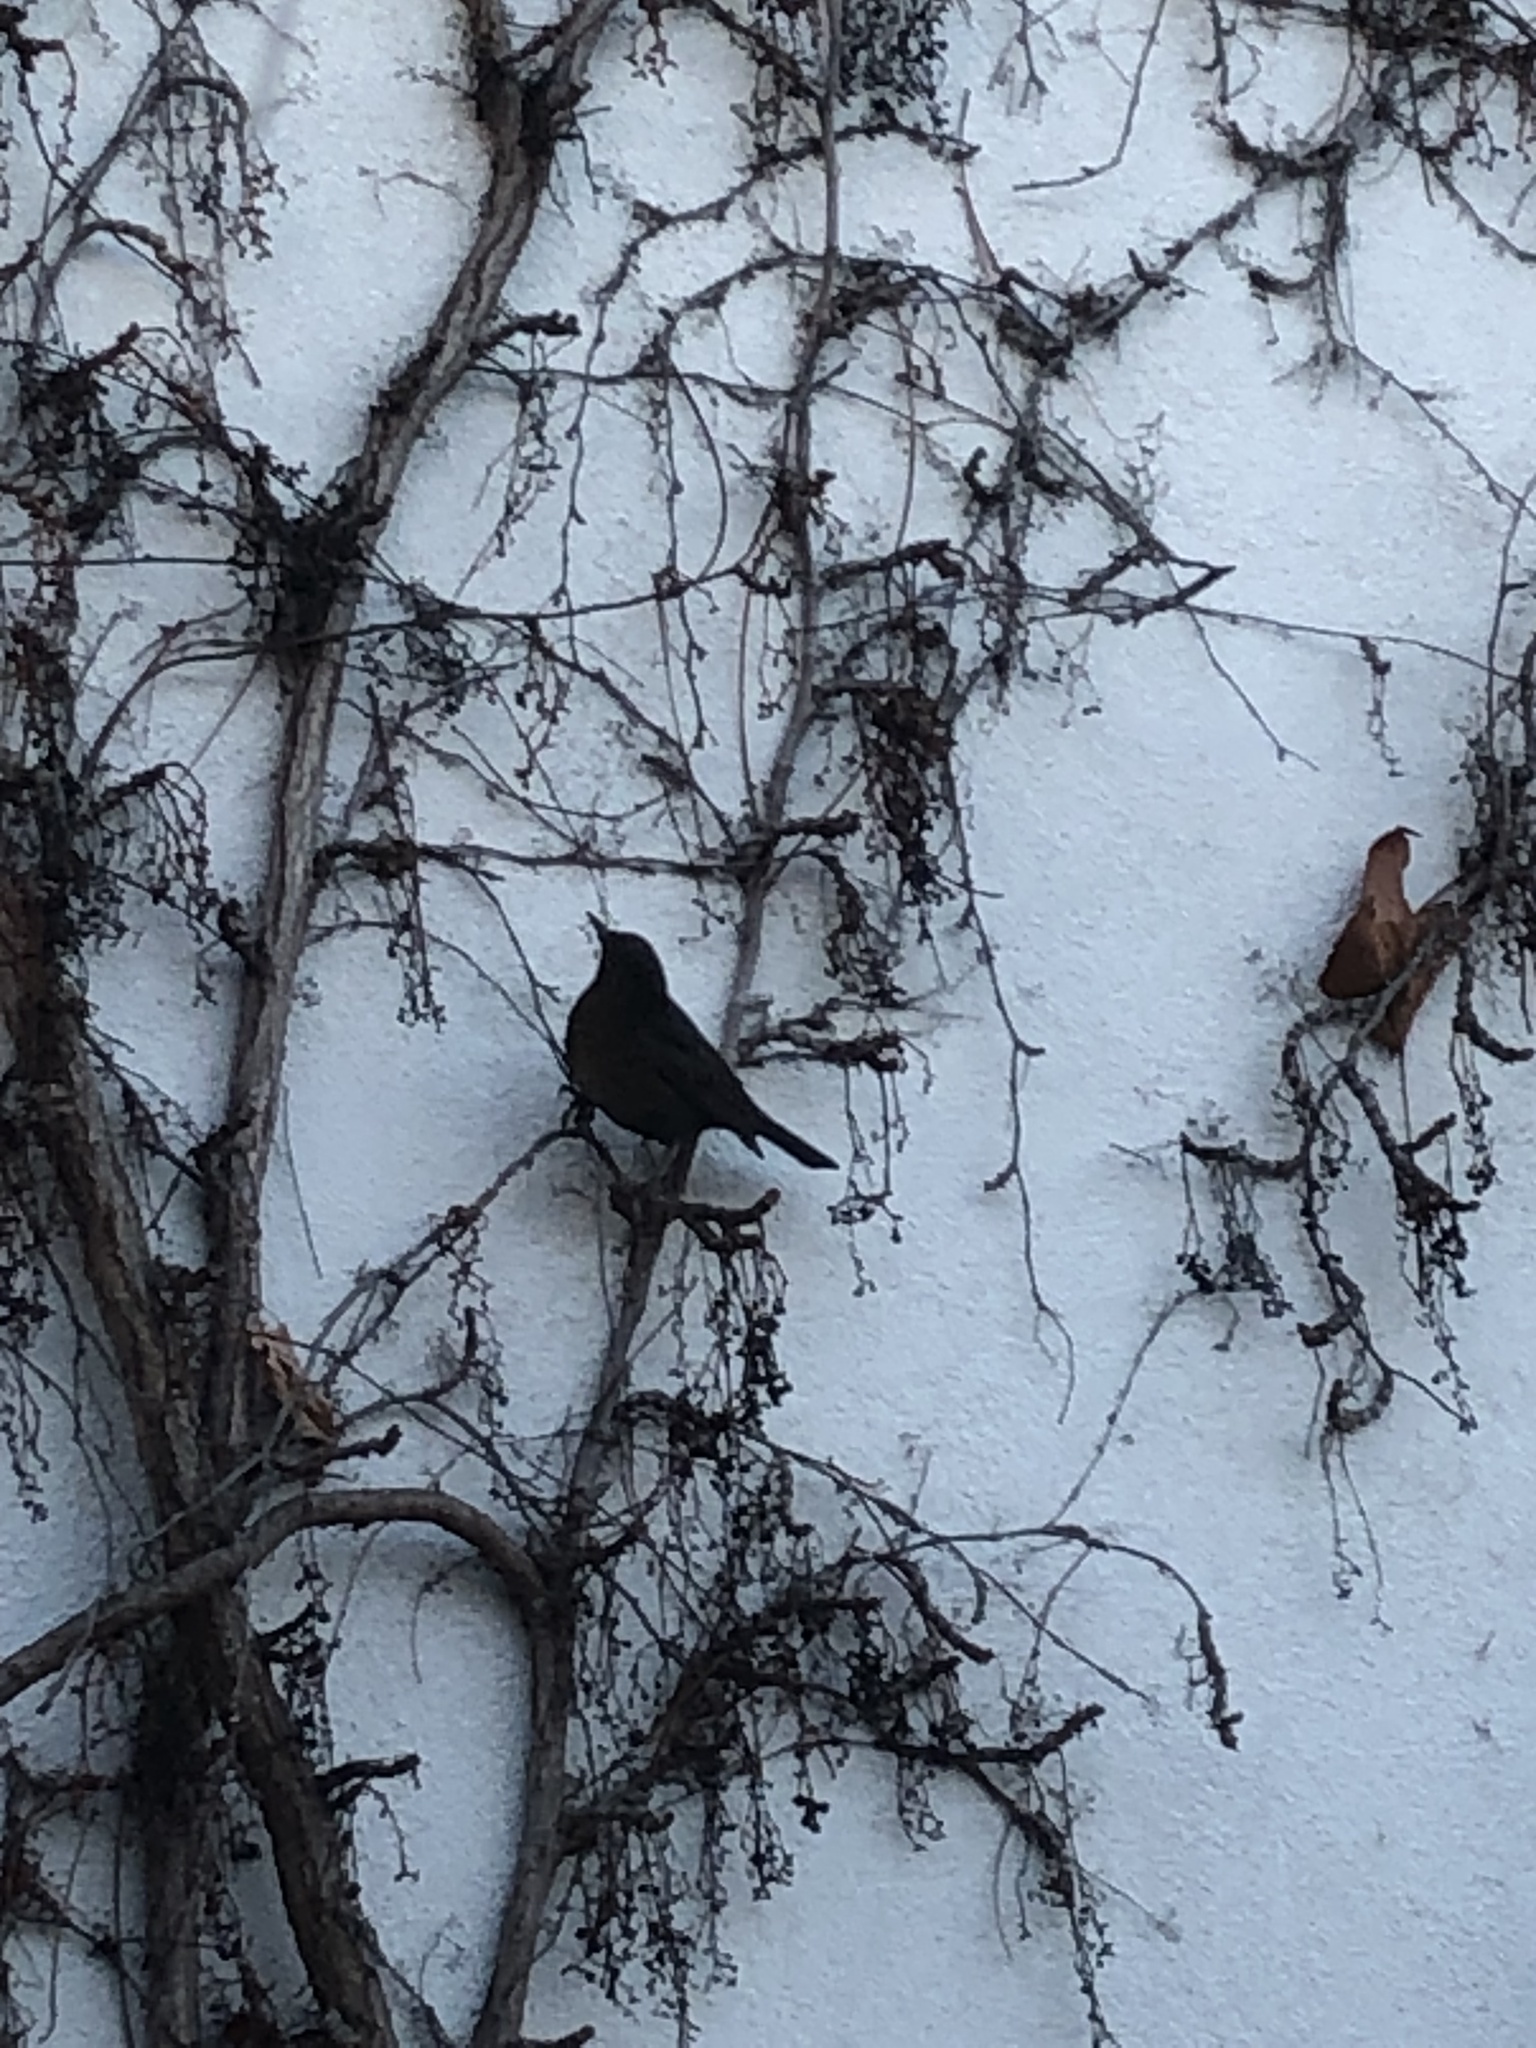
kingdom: Animalia
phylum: Chordata
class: Aves
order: Passeriformes
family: Turdidae
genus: Turdus
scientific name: Turdus merula
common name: Common blackbird
